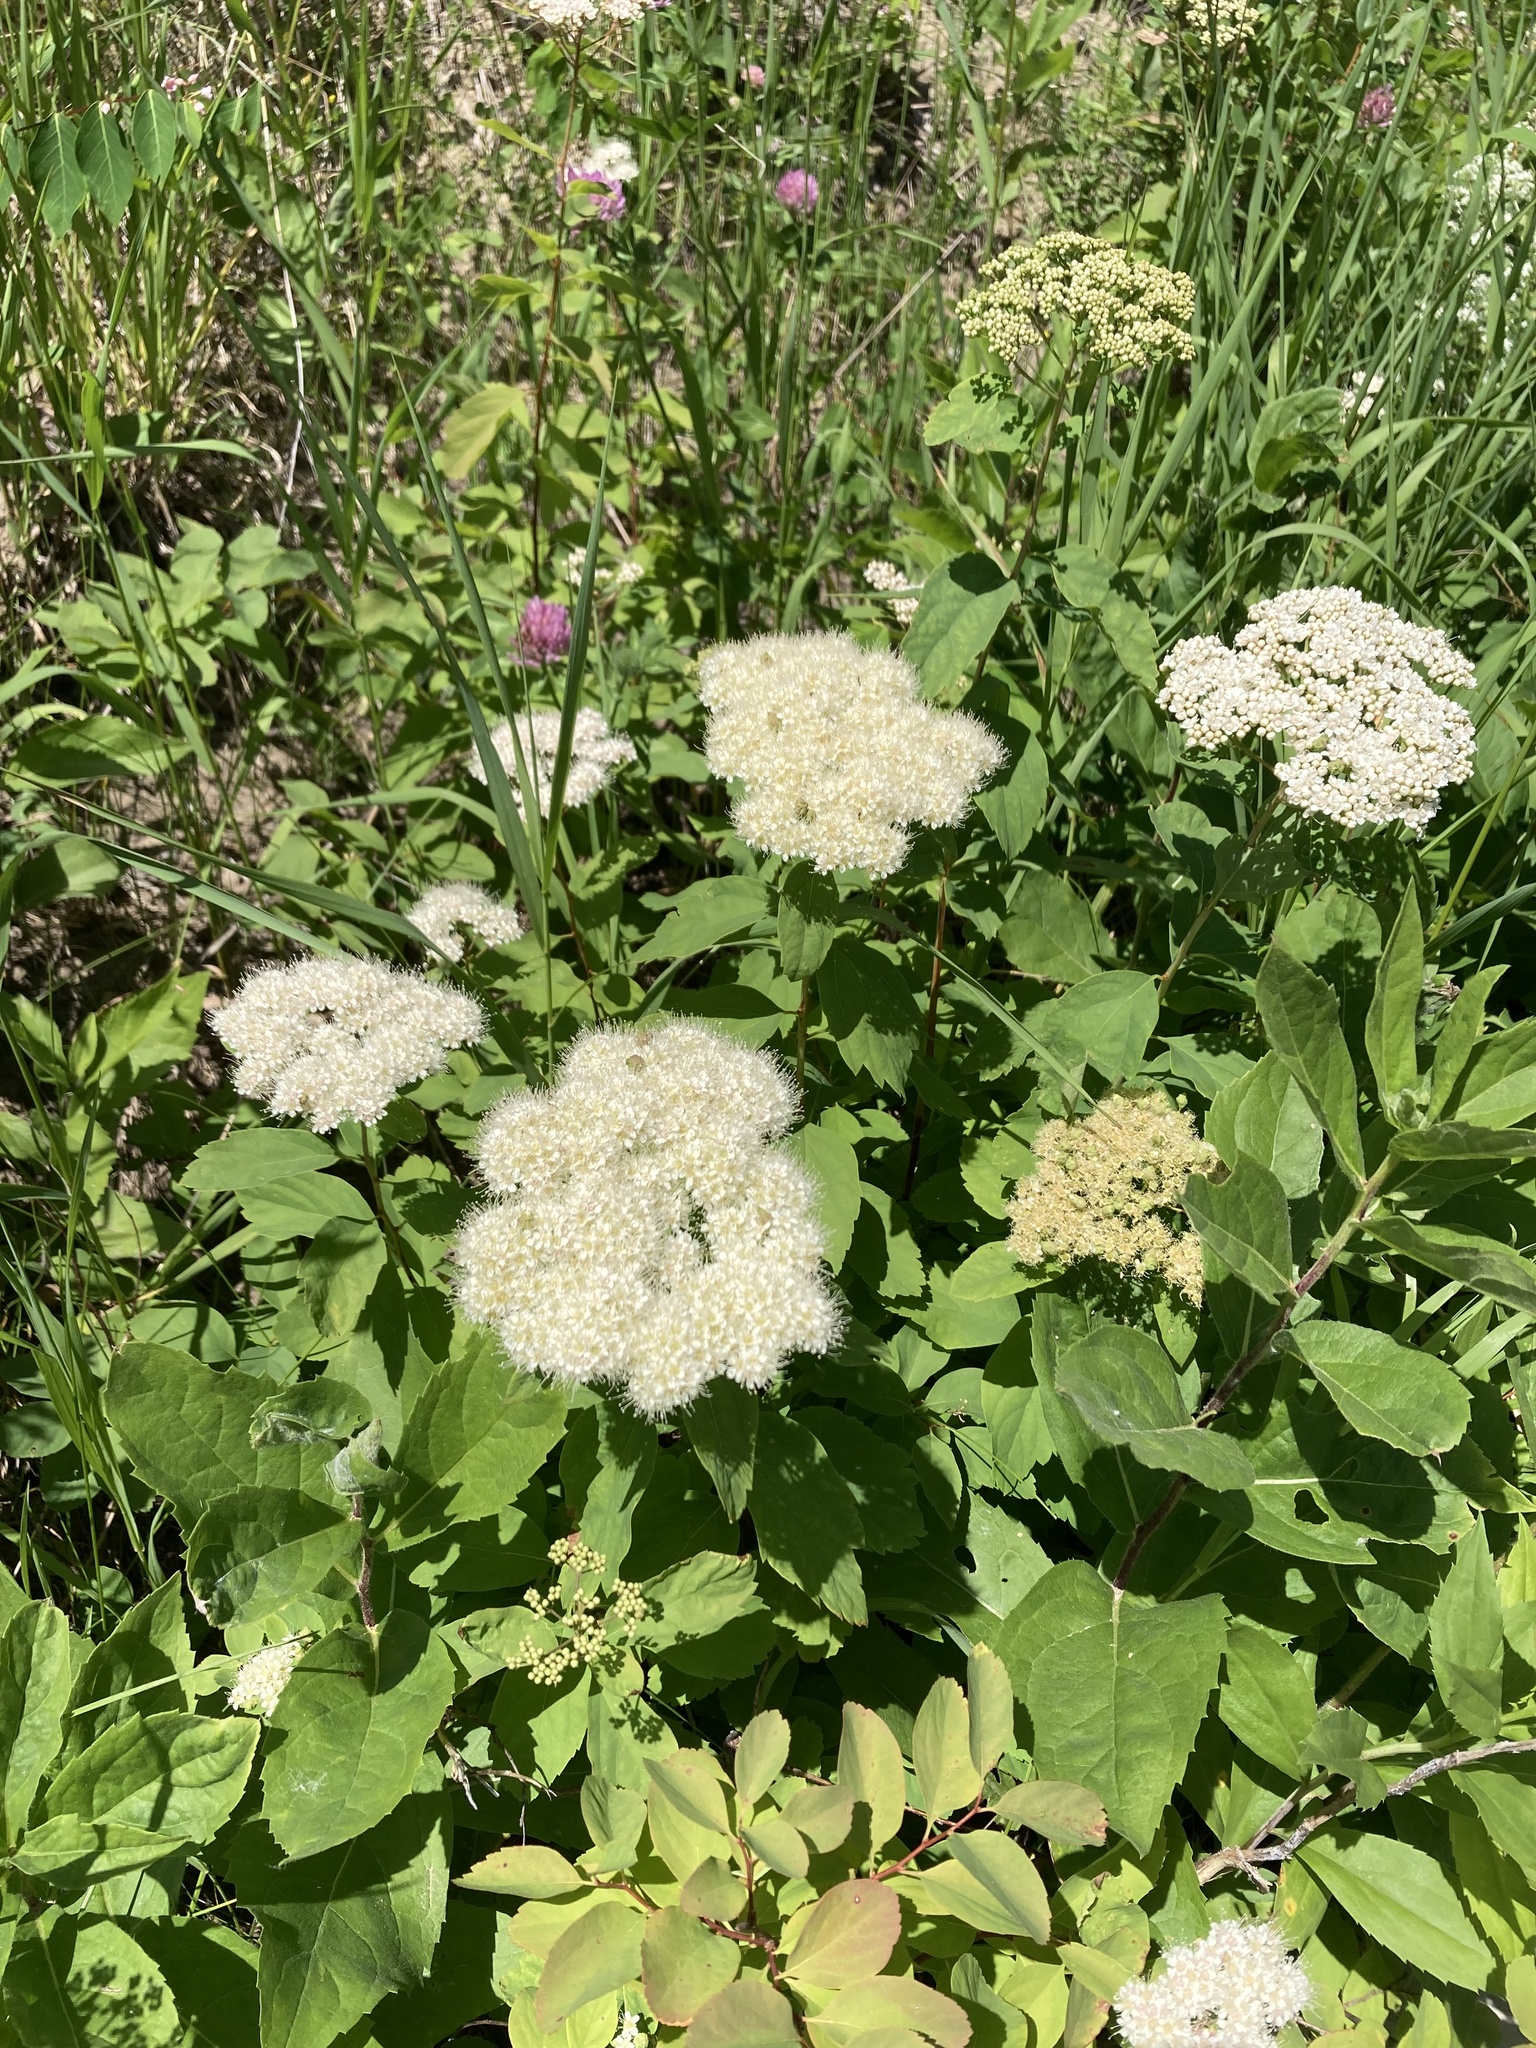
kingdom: Plantae
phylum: Tracheophyta
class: Magnoliopsida
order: Rosales
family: Rosaceae
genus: Spiraea
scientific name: Spiraea lucida
